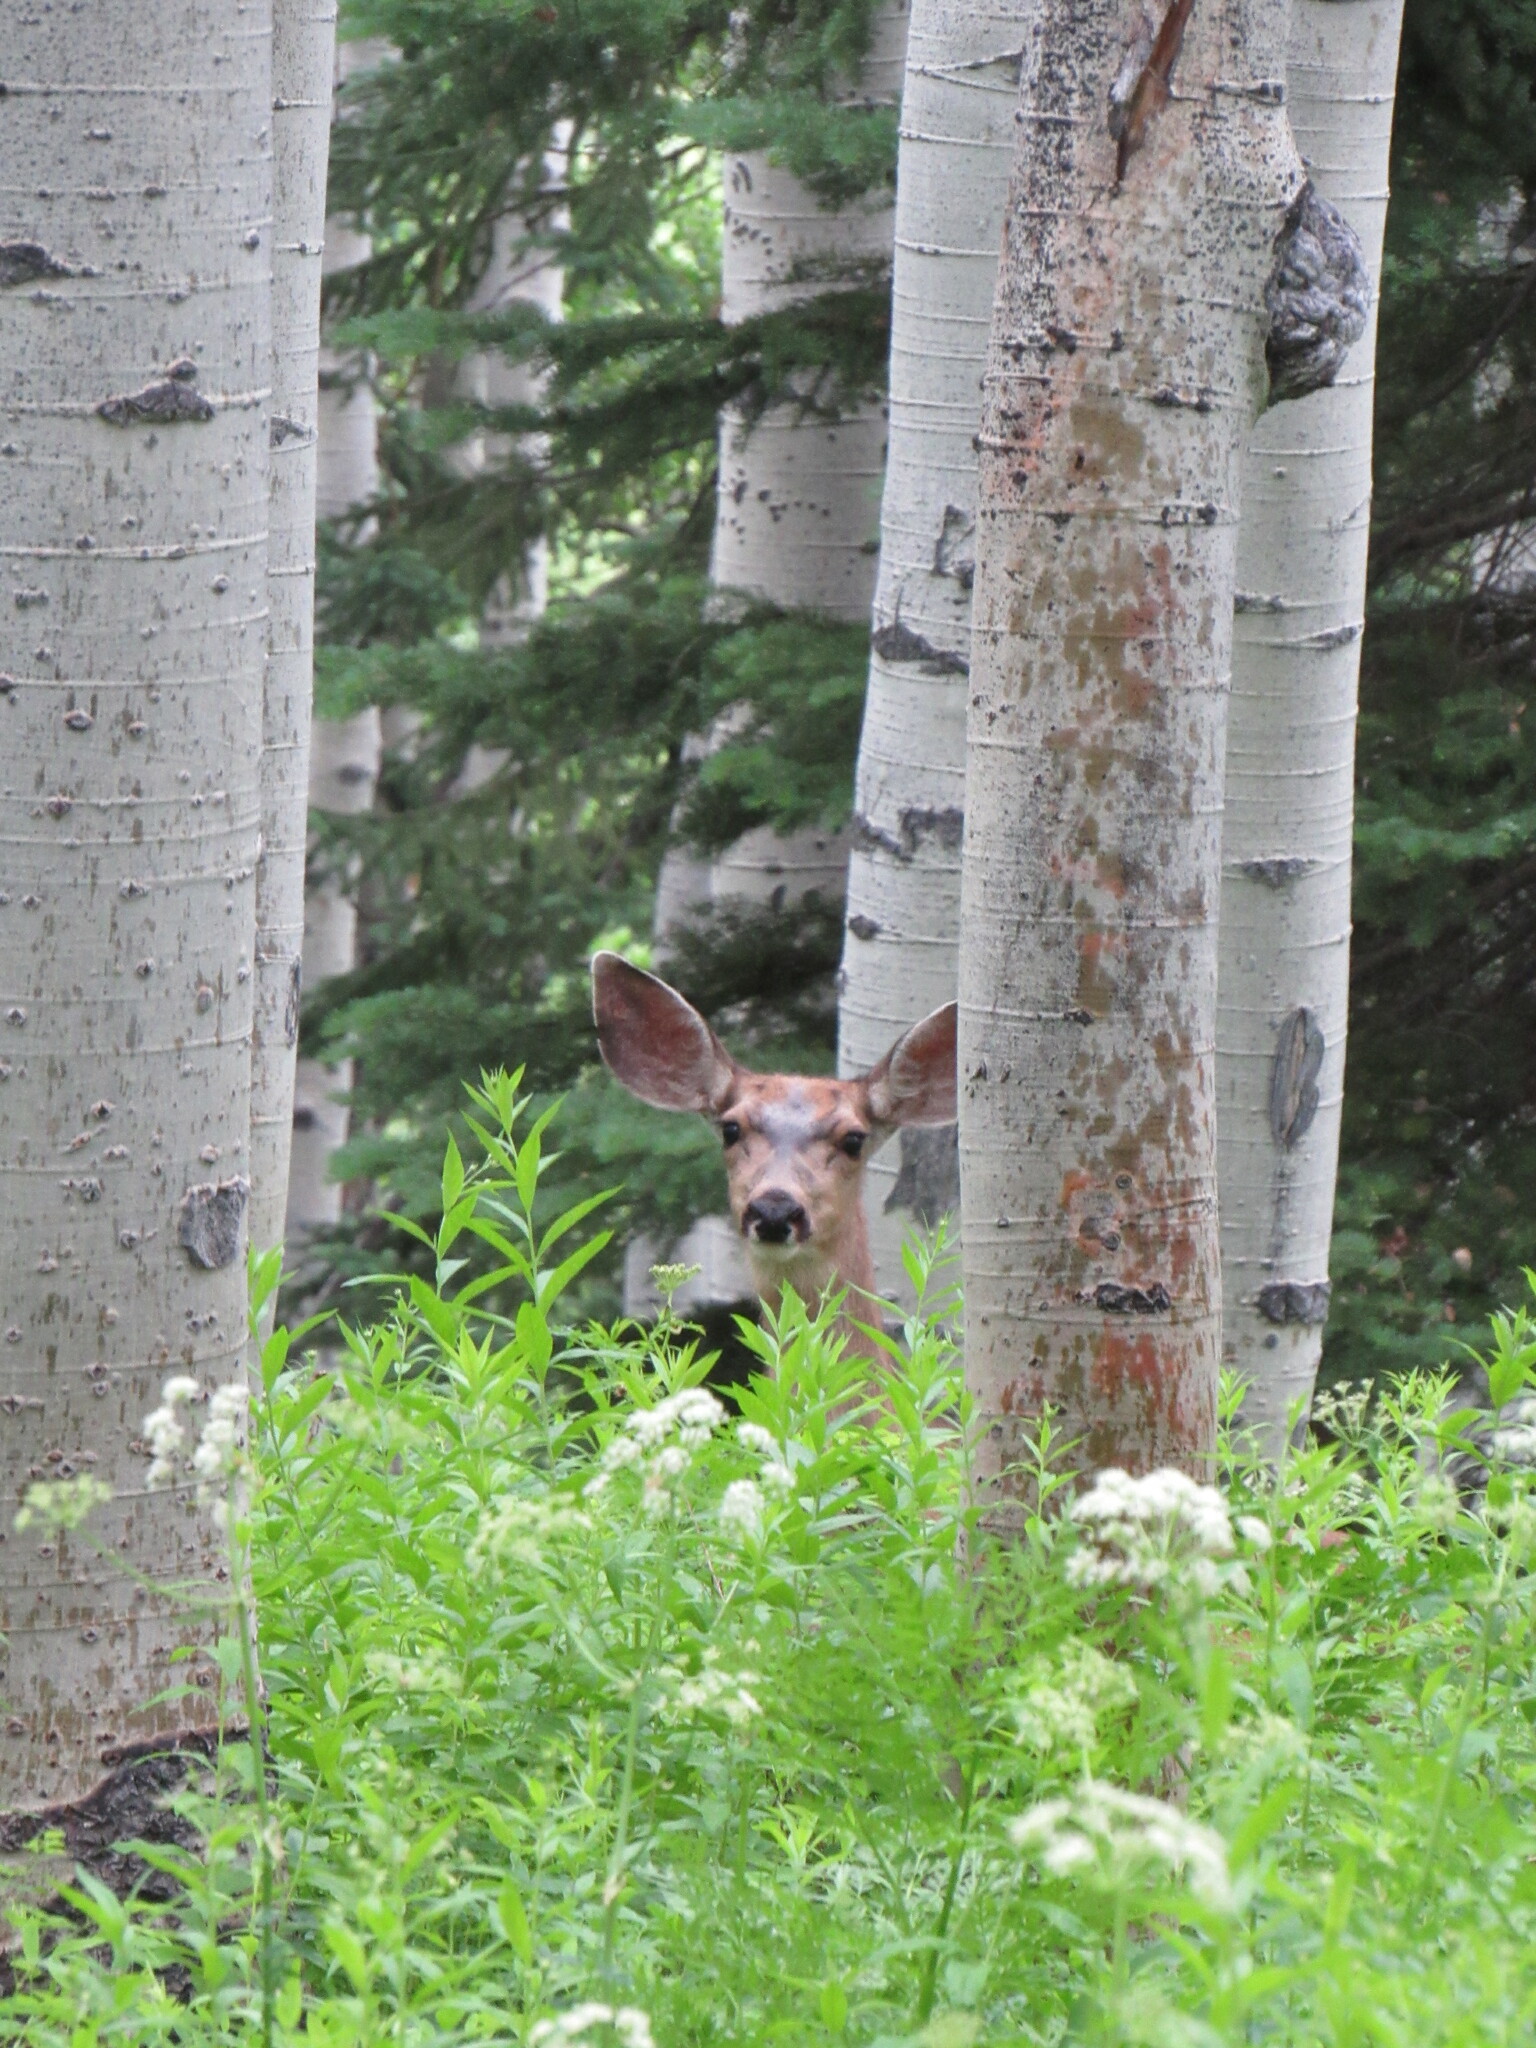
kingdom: Animalia
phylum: Chordata
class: Mammalia
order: Artiodactyla
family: Cervidae
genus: Odocoileus
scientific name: Odocoileus hemionus
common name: Mule deer
